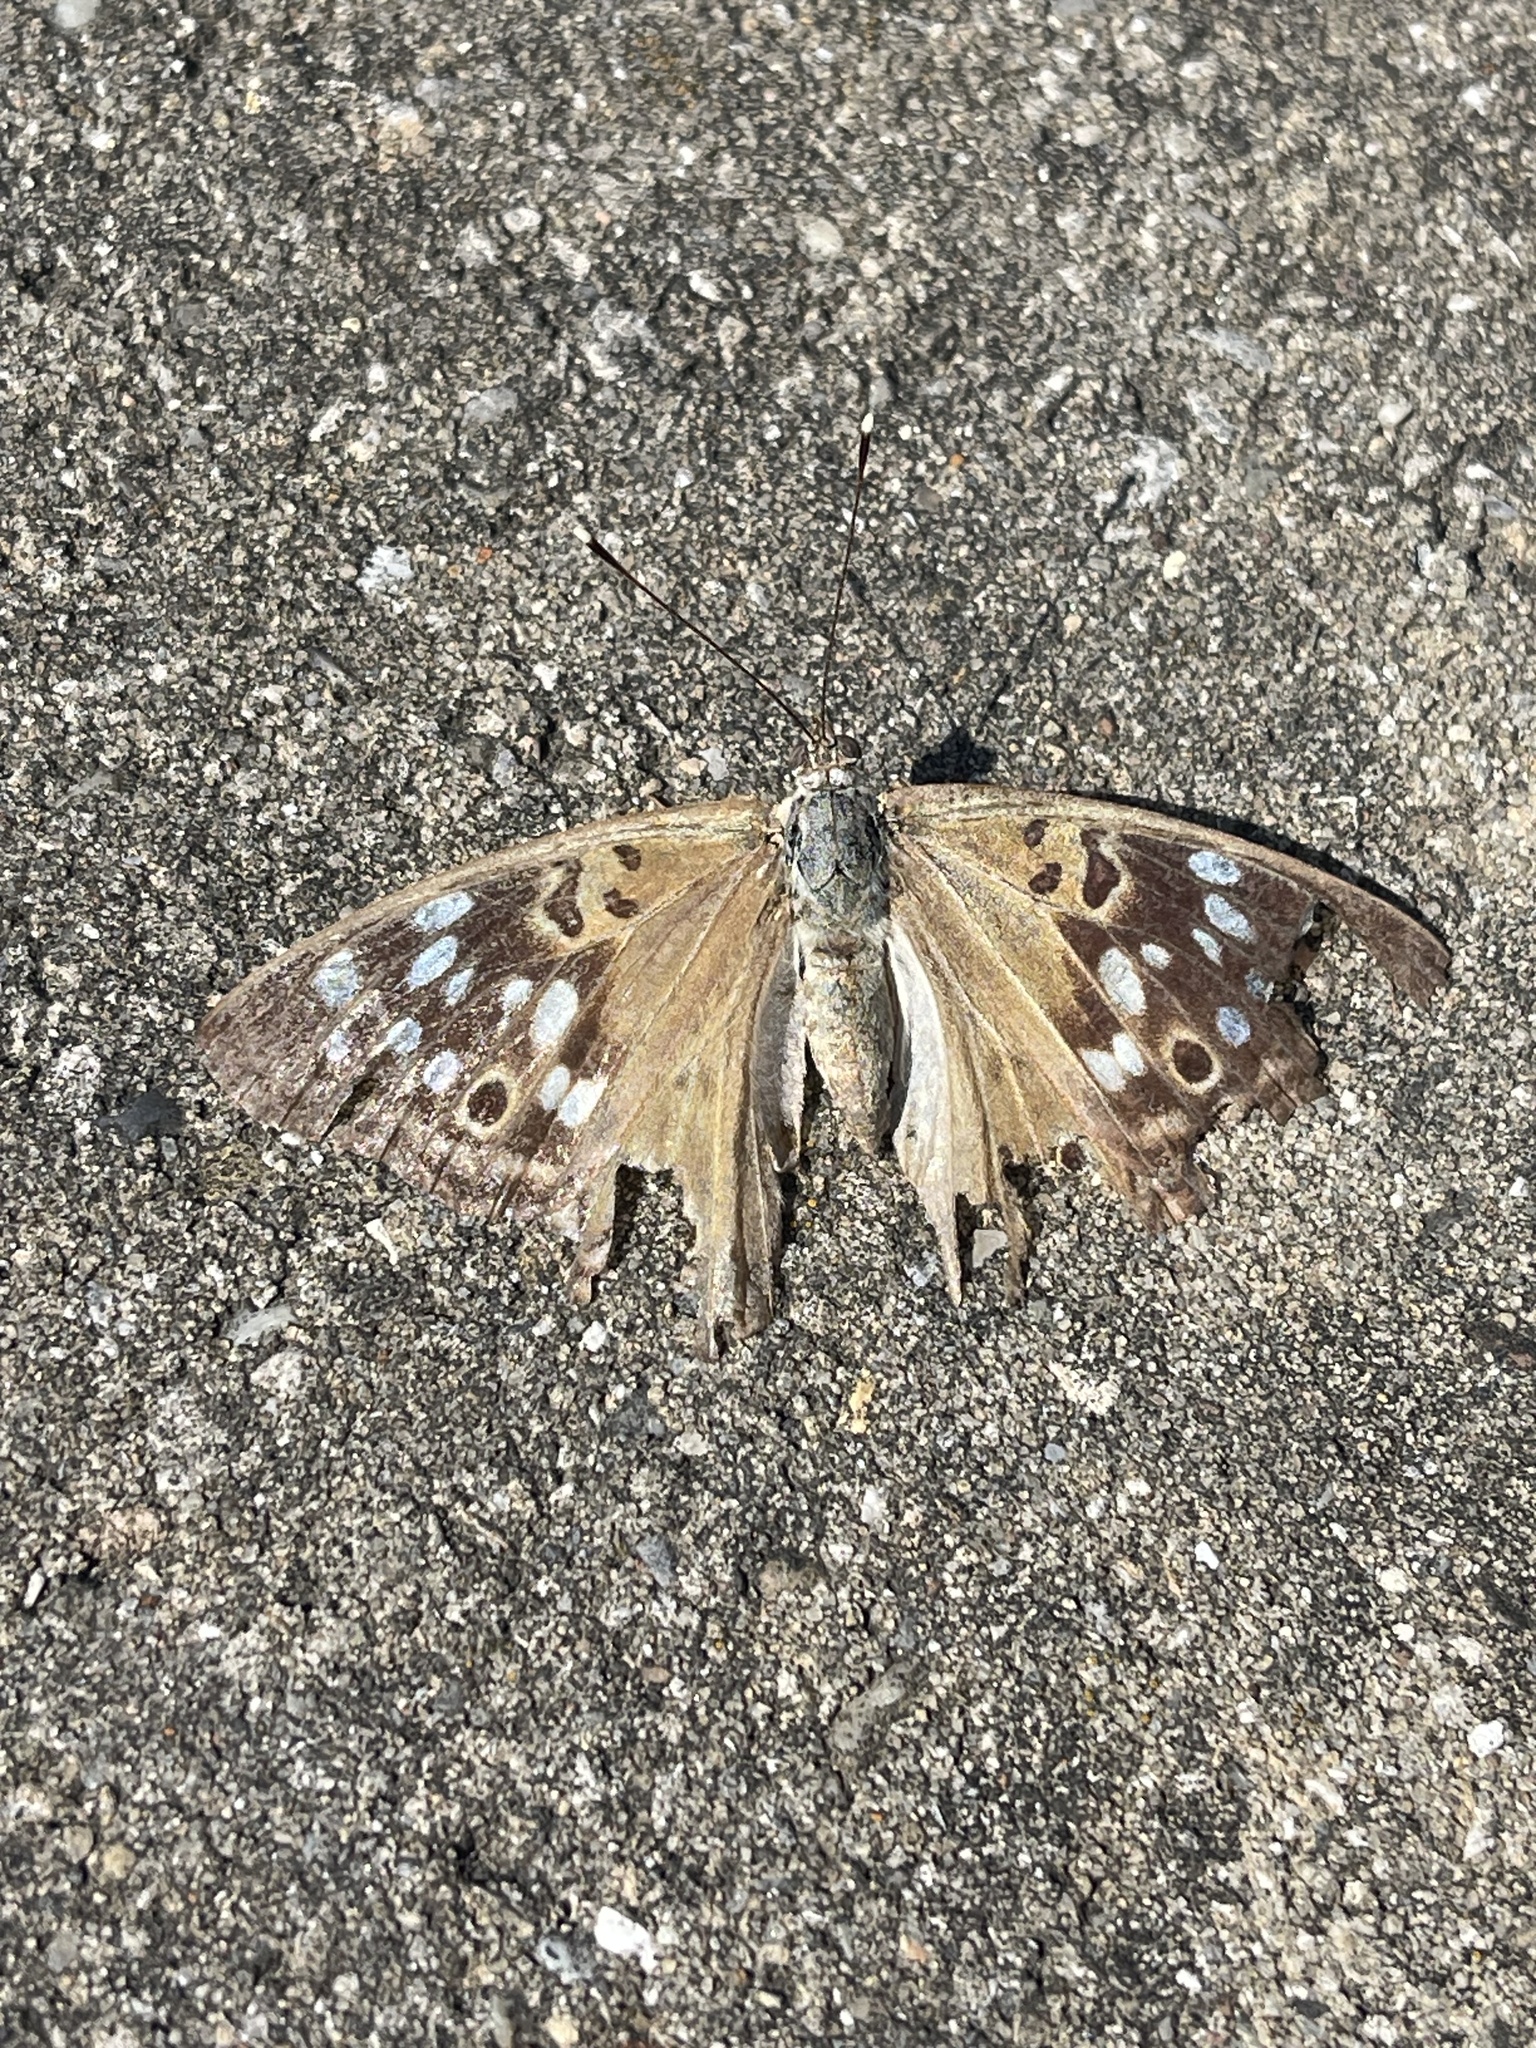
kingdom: Animalia
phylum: Arthropoda
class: Insecta
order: Lepidoptera
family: Nymphalidae
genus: Asterocampa
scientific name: Asterocampa celtis
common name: Hackberry emperor
